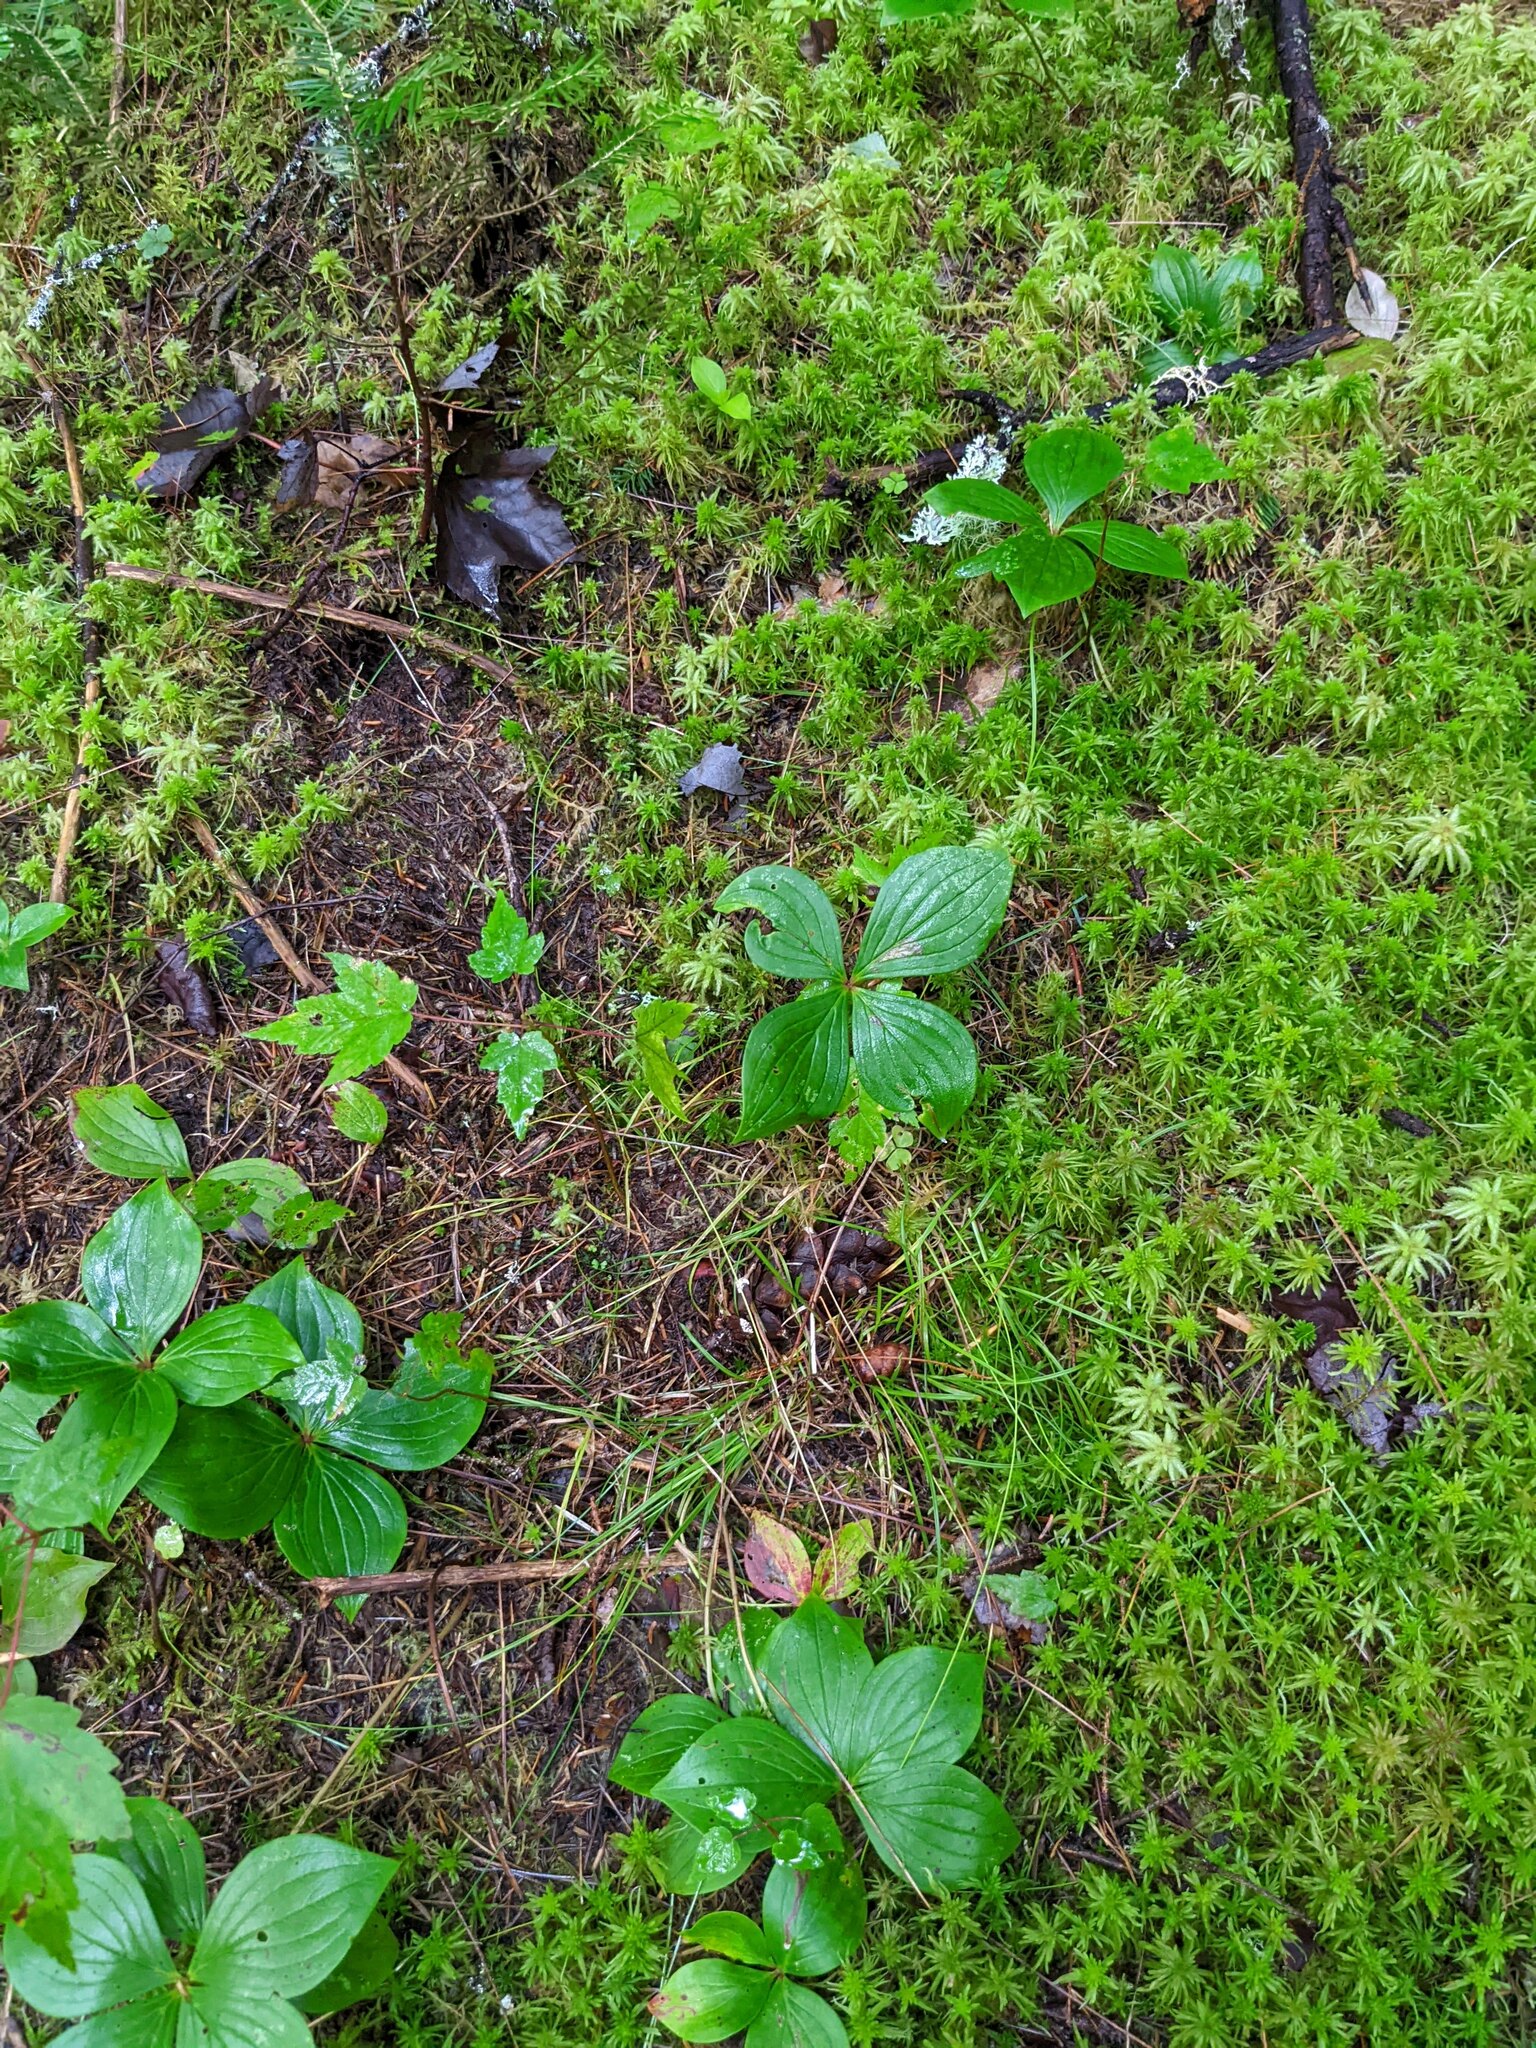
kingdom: Plantae
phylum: Tracheophyta
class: Magnoliopsida
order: Cornales
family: Cornaceae
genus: Cornus
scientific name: Cornus canadensis
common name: Creeping dogwood
